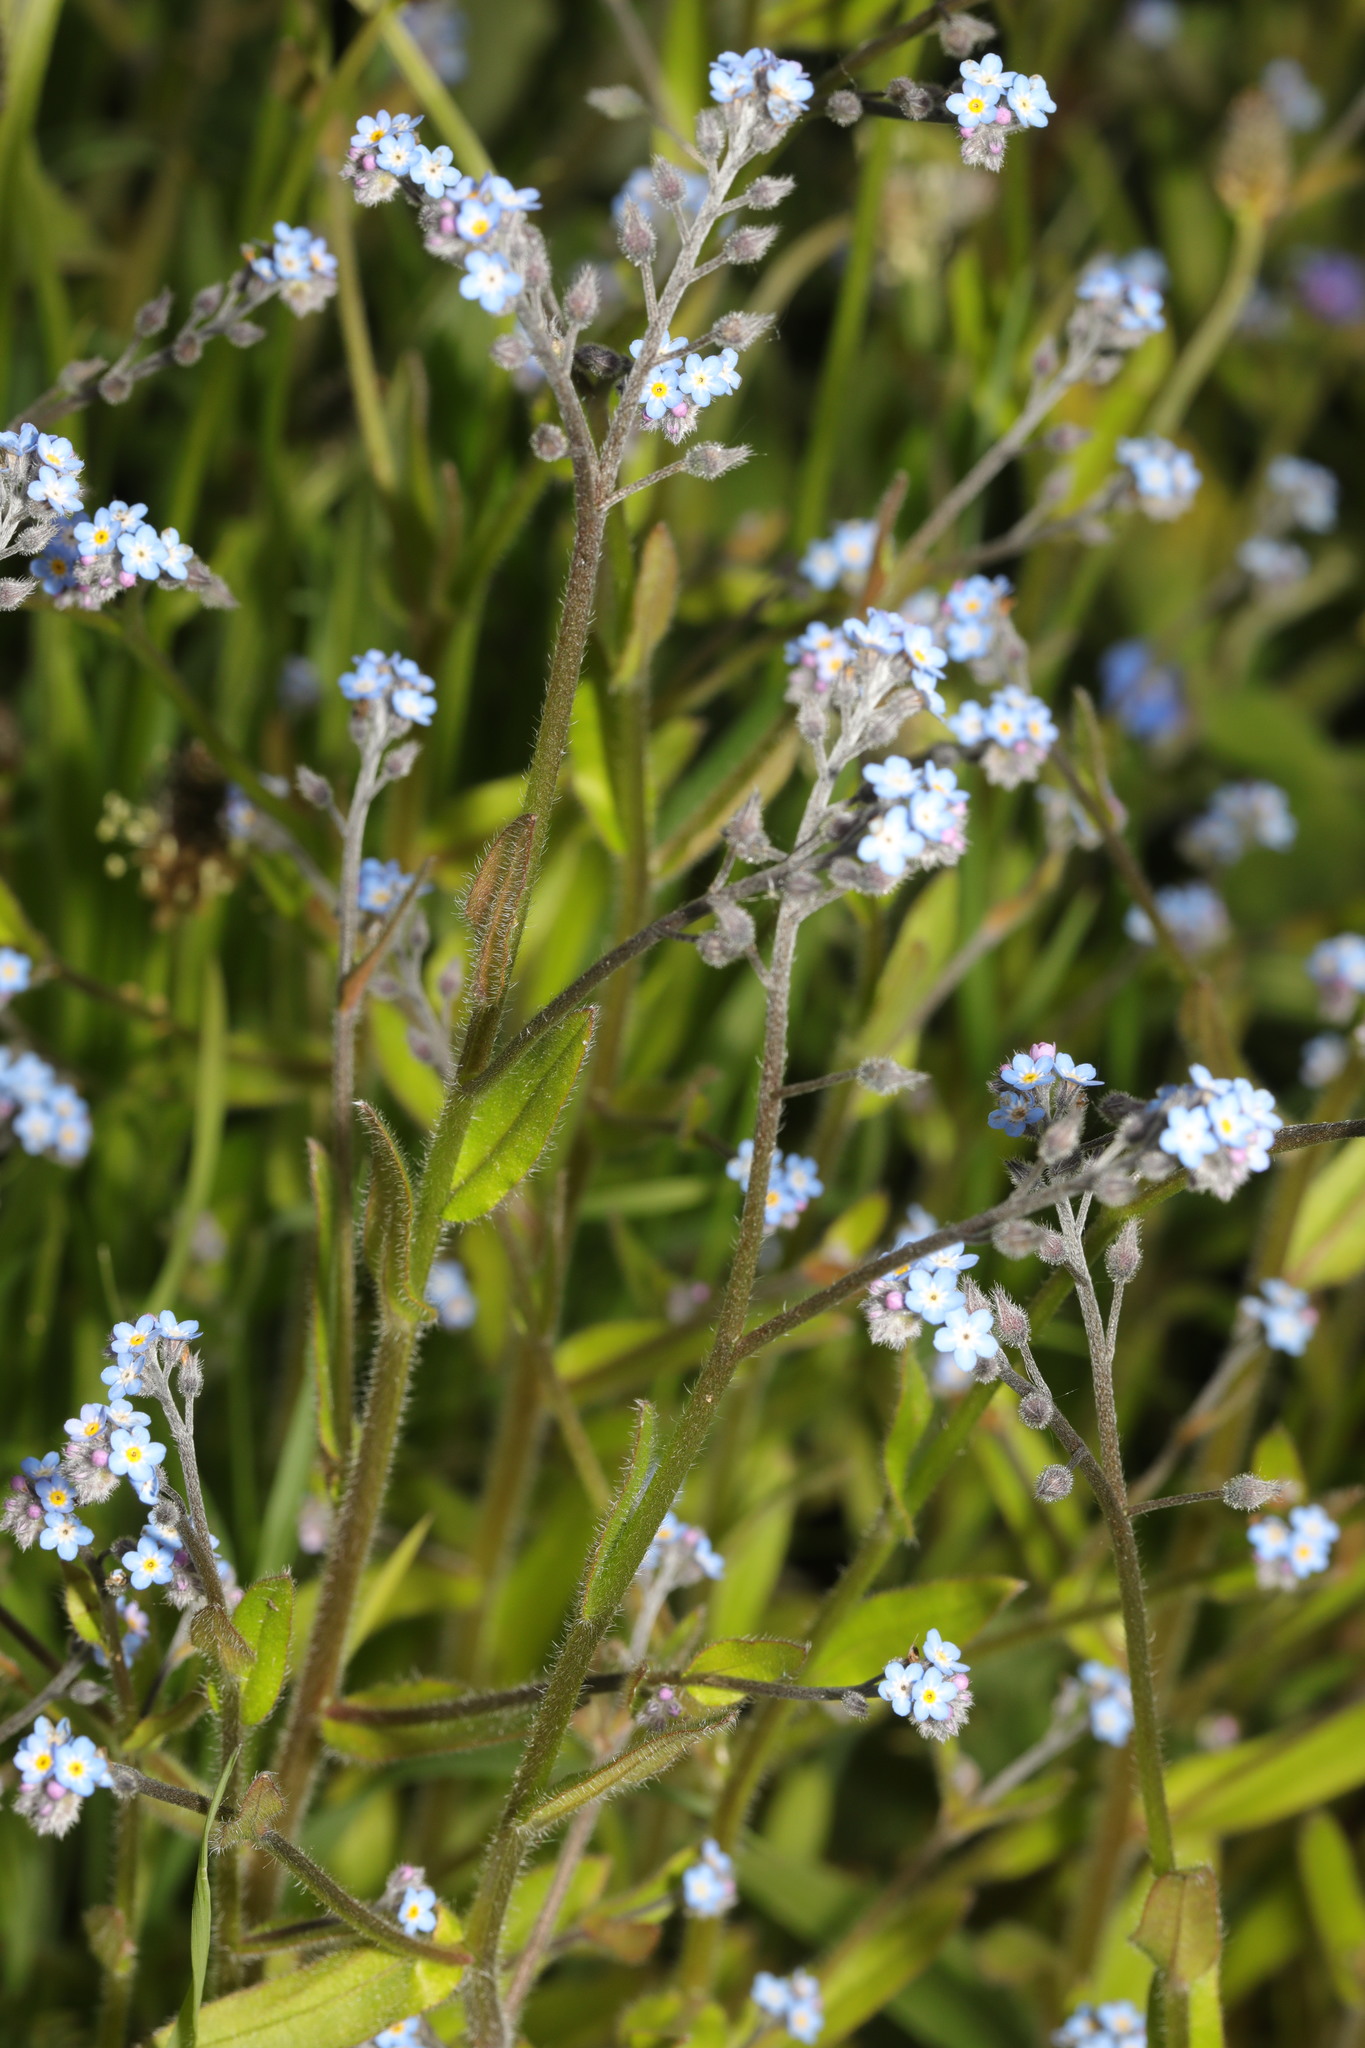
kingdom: Plantae
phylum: Tracheophyta
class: Magnoliopsida
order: Boraginales
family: Boraginaceae
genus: Myosotis
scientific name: Myosotis arvensis
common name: Field forget-me-not
